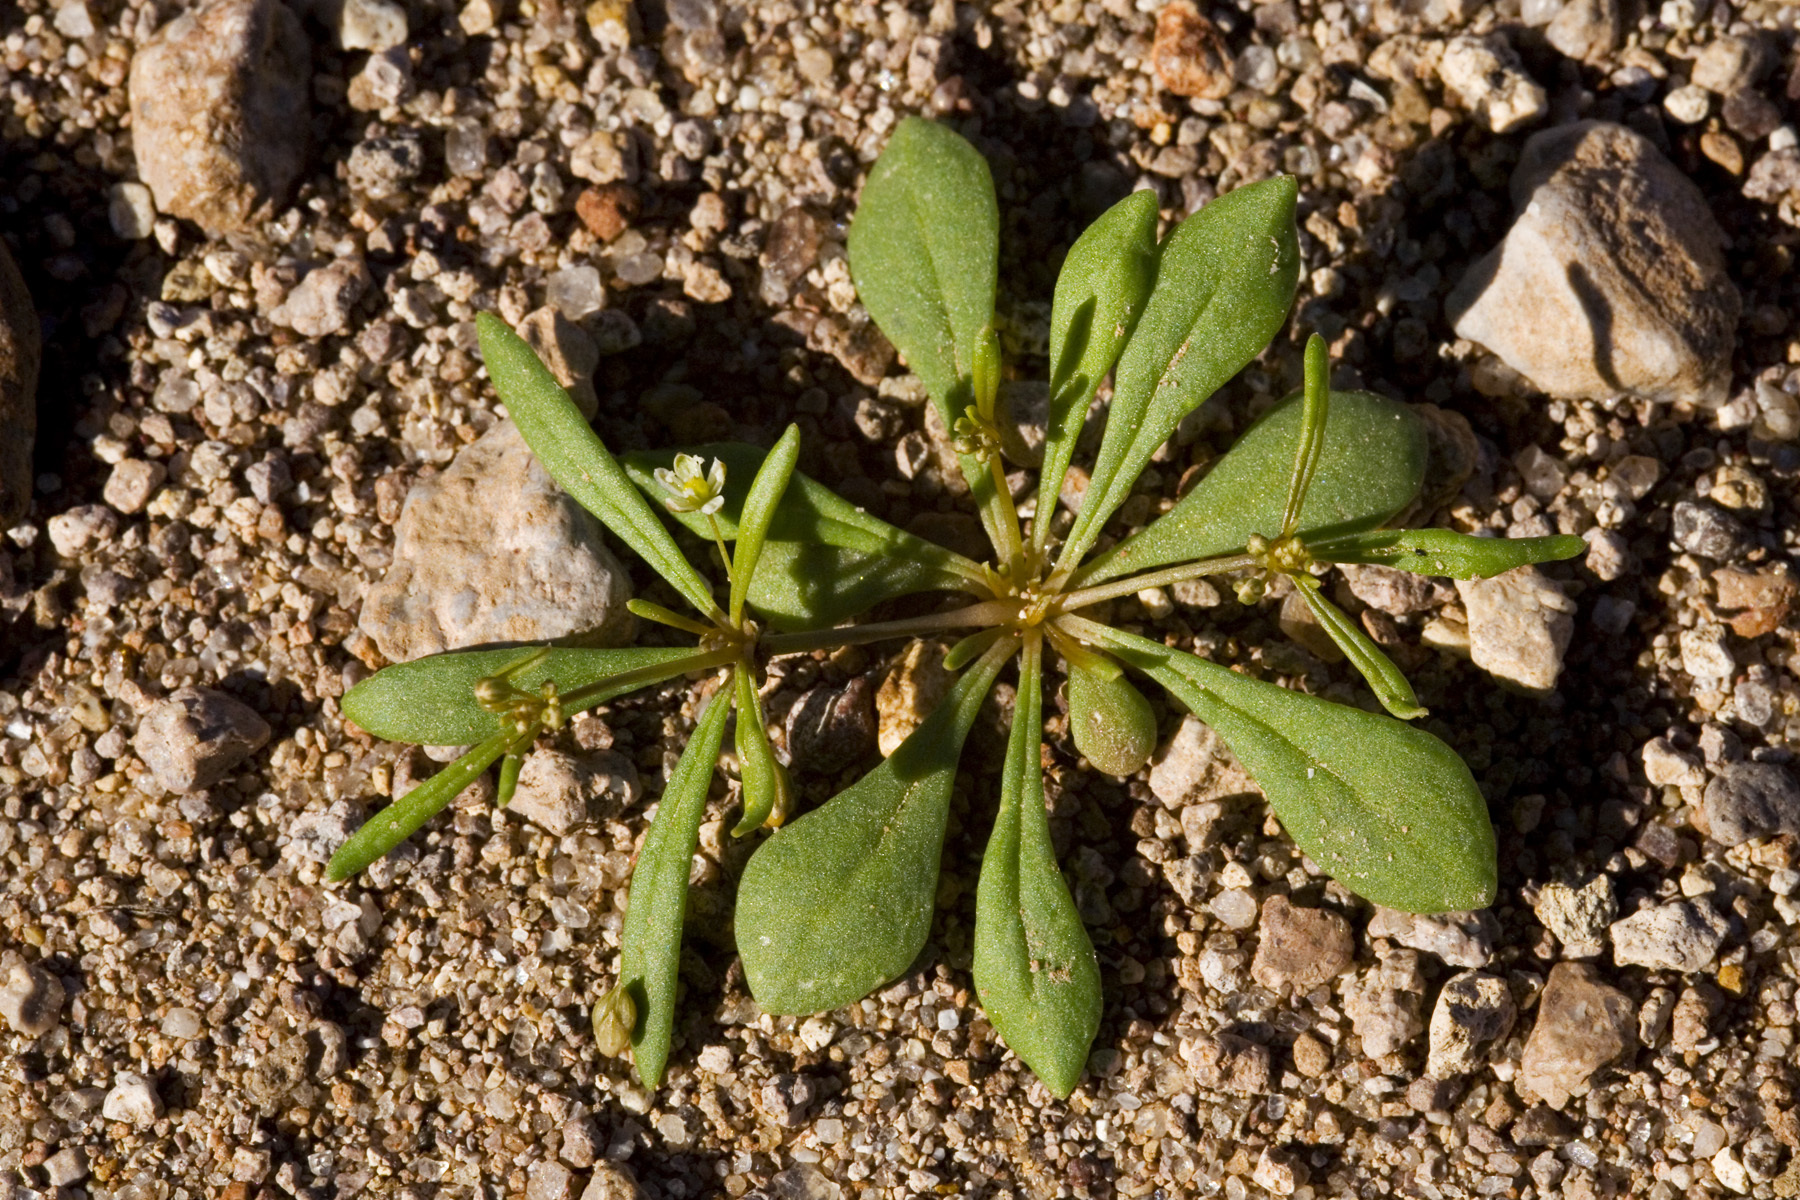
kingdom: Plantae
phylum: Tracheophyta
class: Magnoliopsida
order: Caryophyllales
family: Molluginaceae
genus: Mollugo
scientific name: Mollugo verticillata
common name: Green carpetweed
